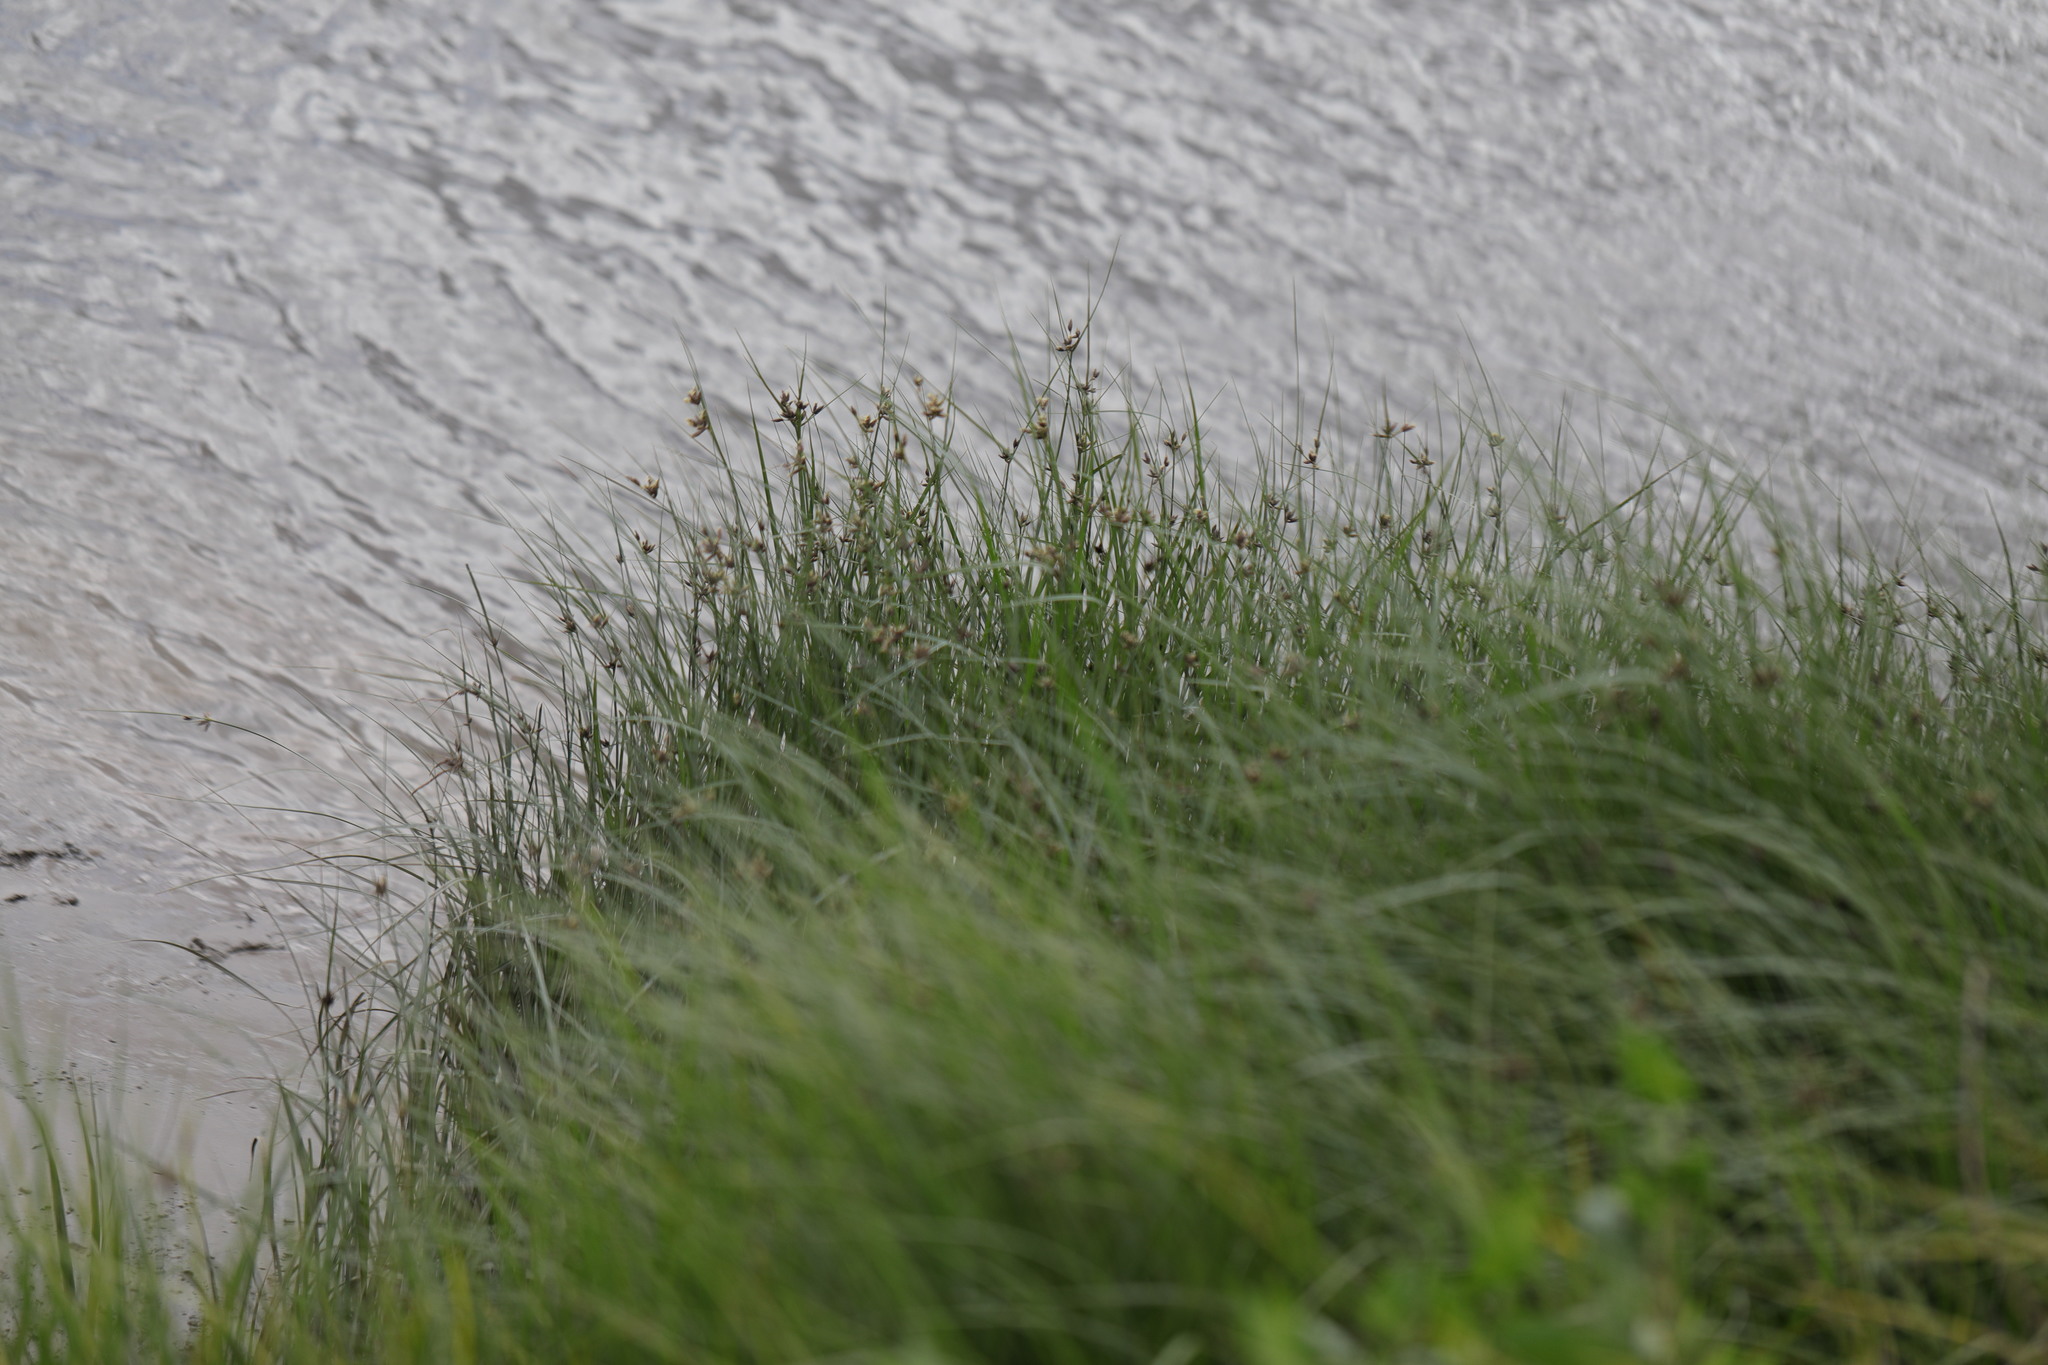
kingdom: Plantae
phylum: Tracheophyta
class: Liliopsida
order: Poales
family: Cyperaceae
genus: Bolboschoenus
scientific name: Bolboschoenus maritimus
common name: Sea club-rush
